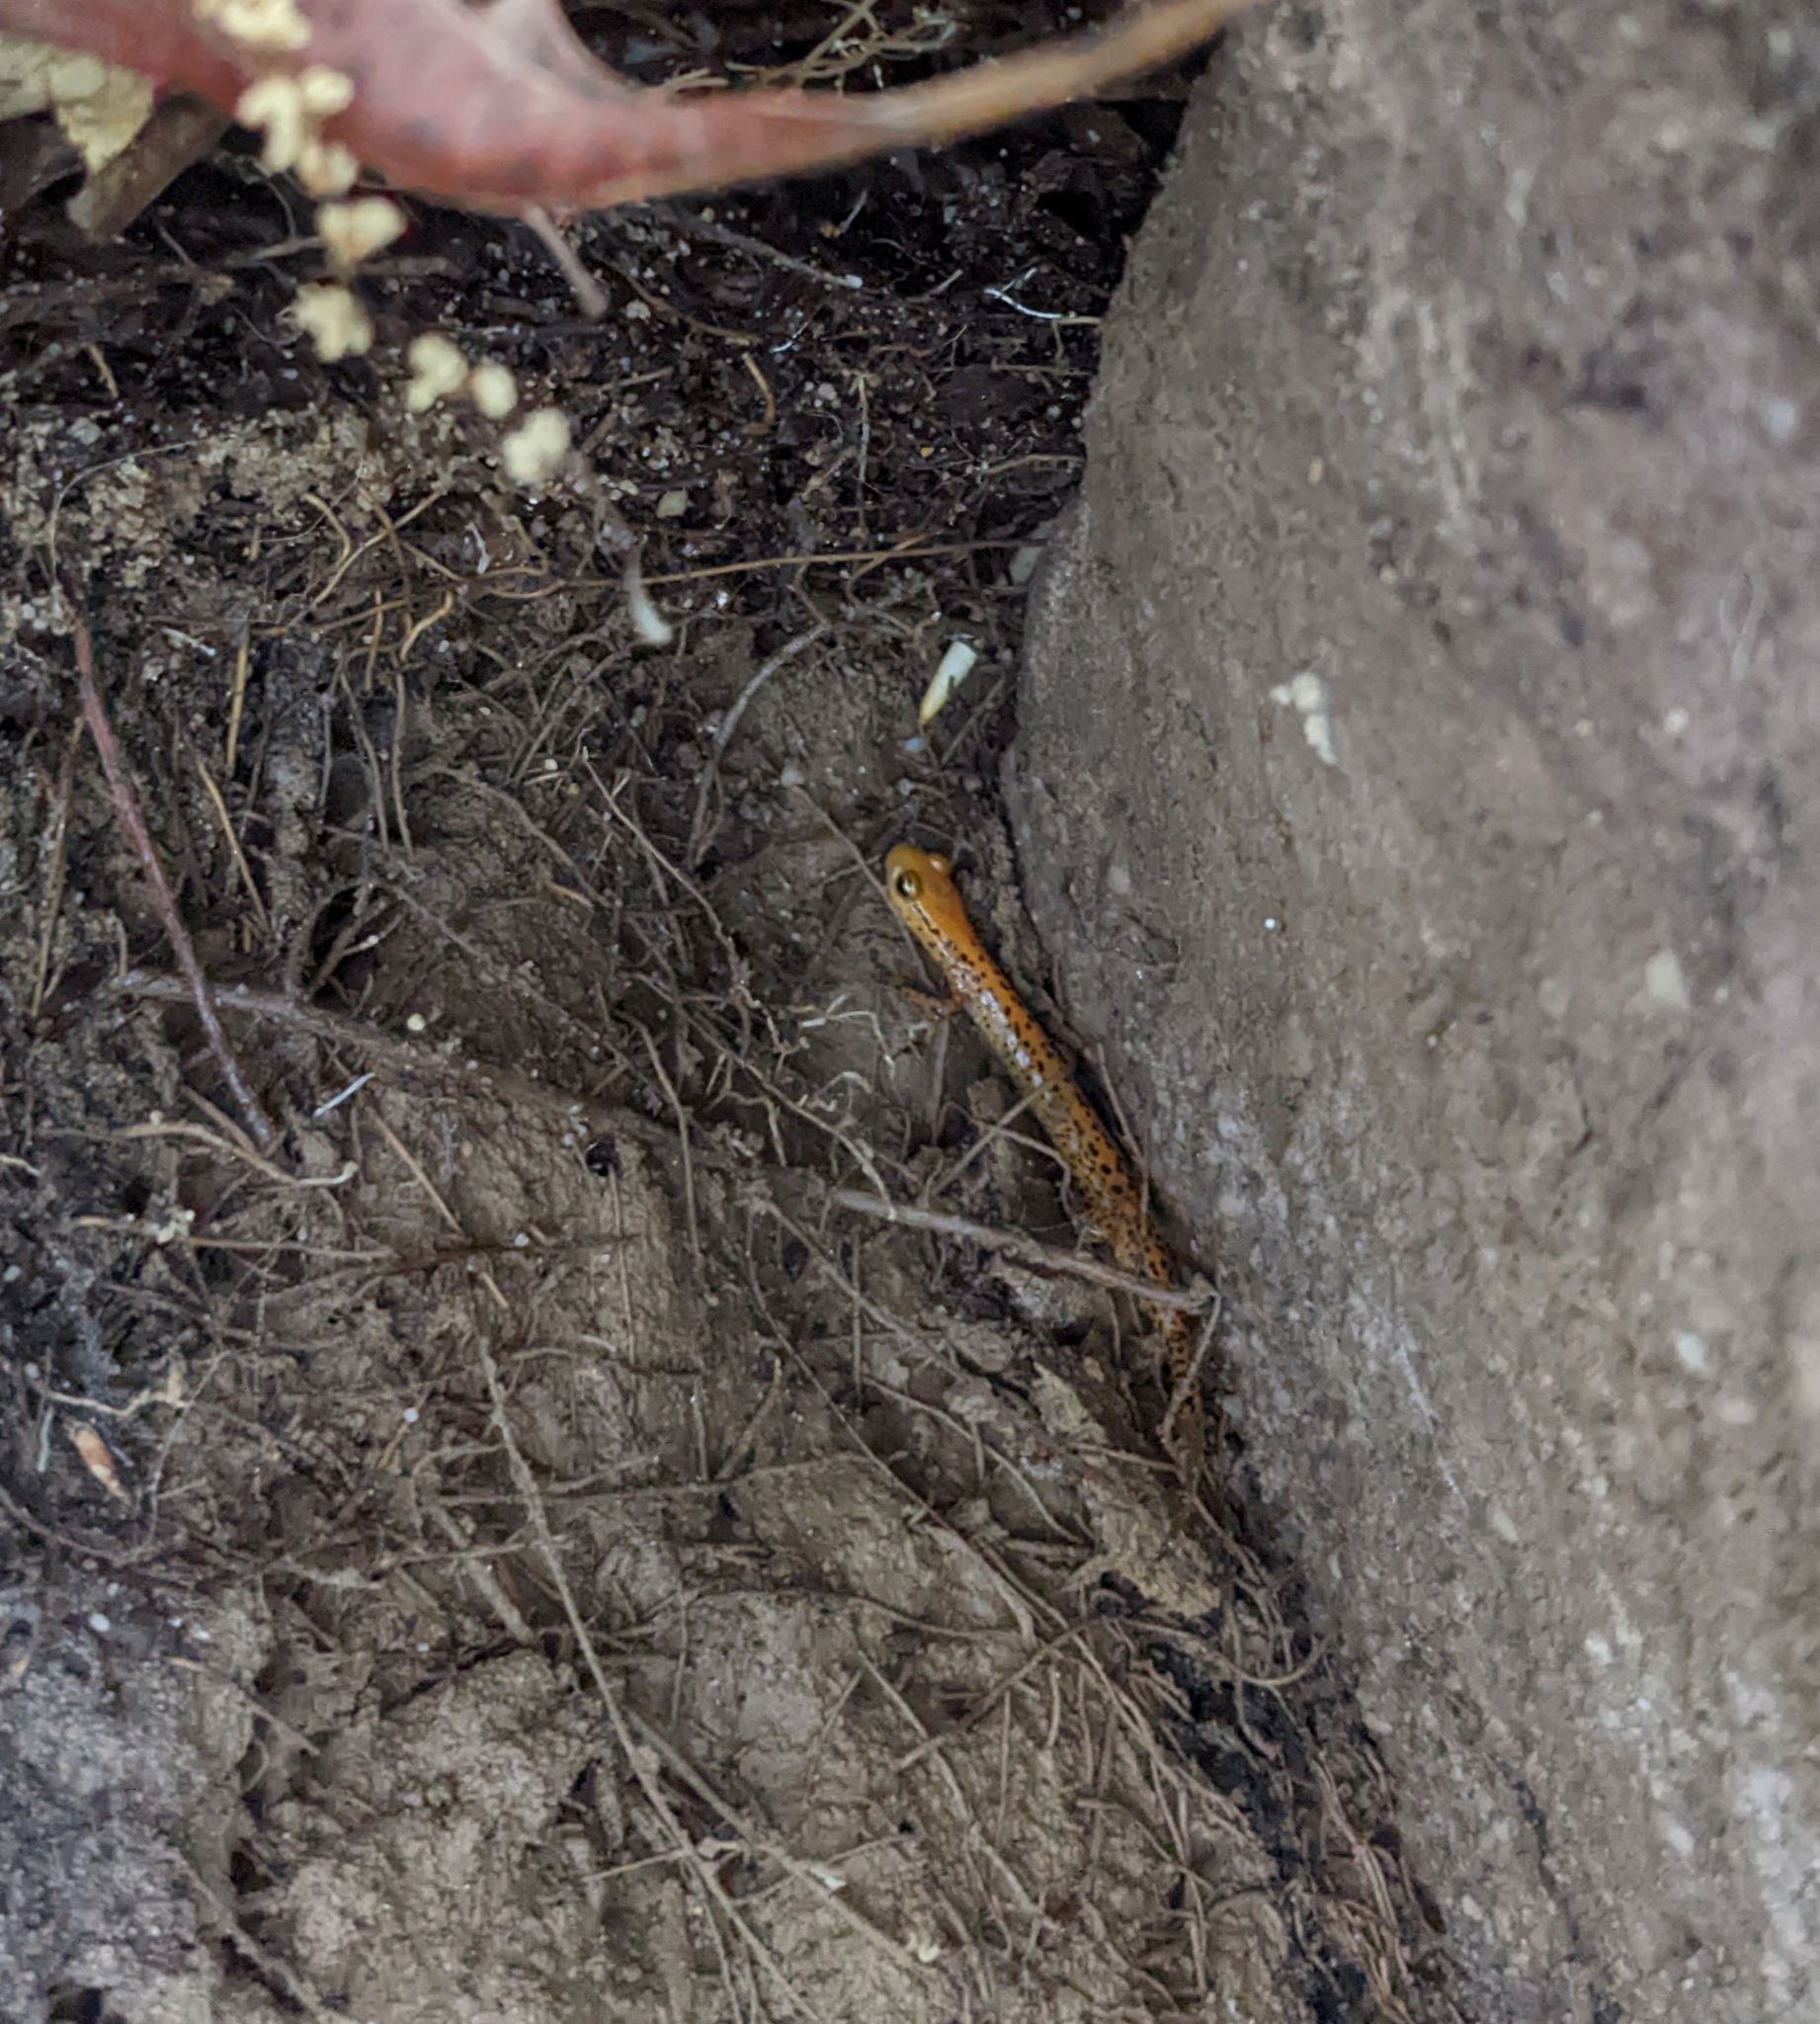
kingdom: Animalia
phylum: Chordata
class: Amphibia
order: Caudata
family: Plethodontidae
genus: Eurycea
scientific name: Eurycea longicauda
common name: Long-tailed salamander
